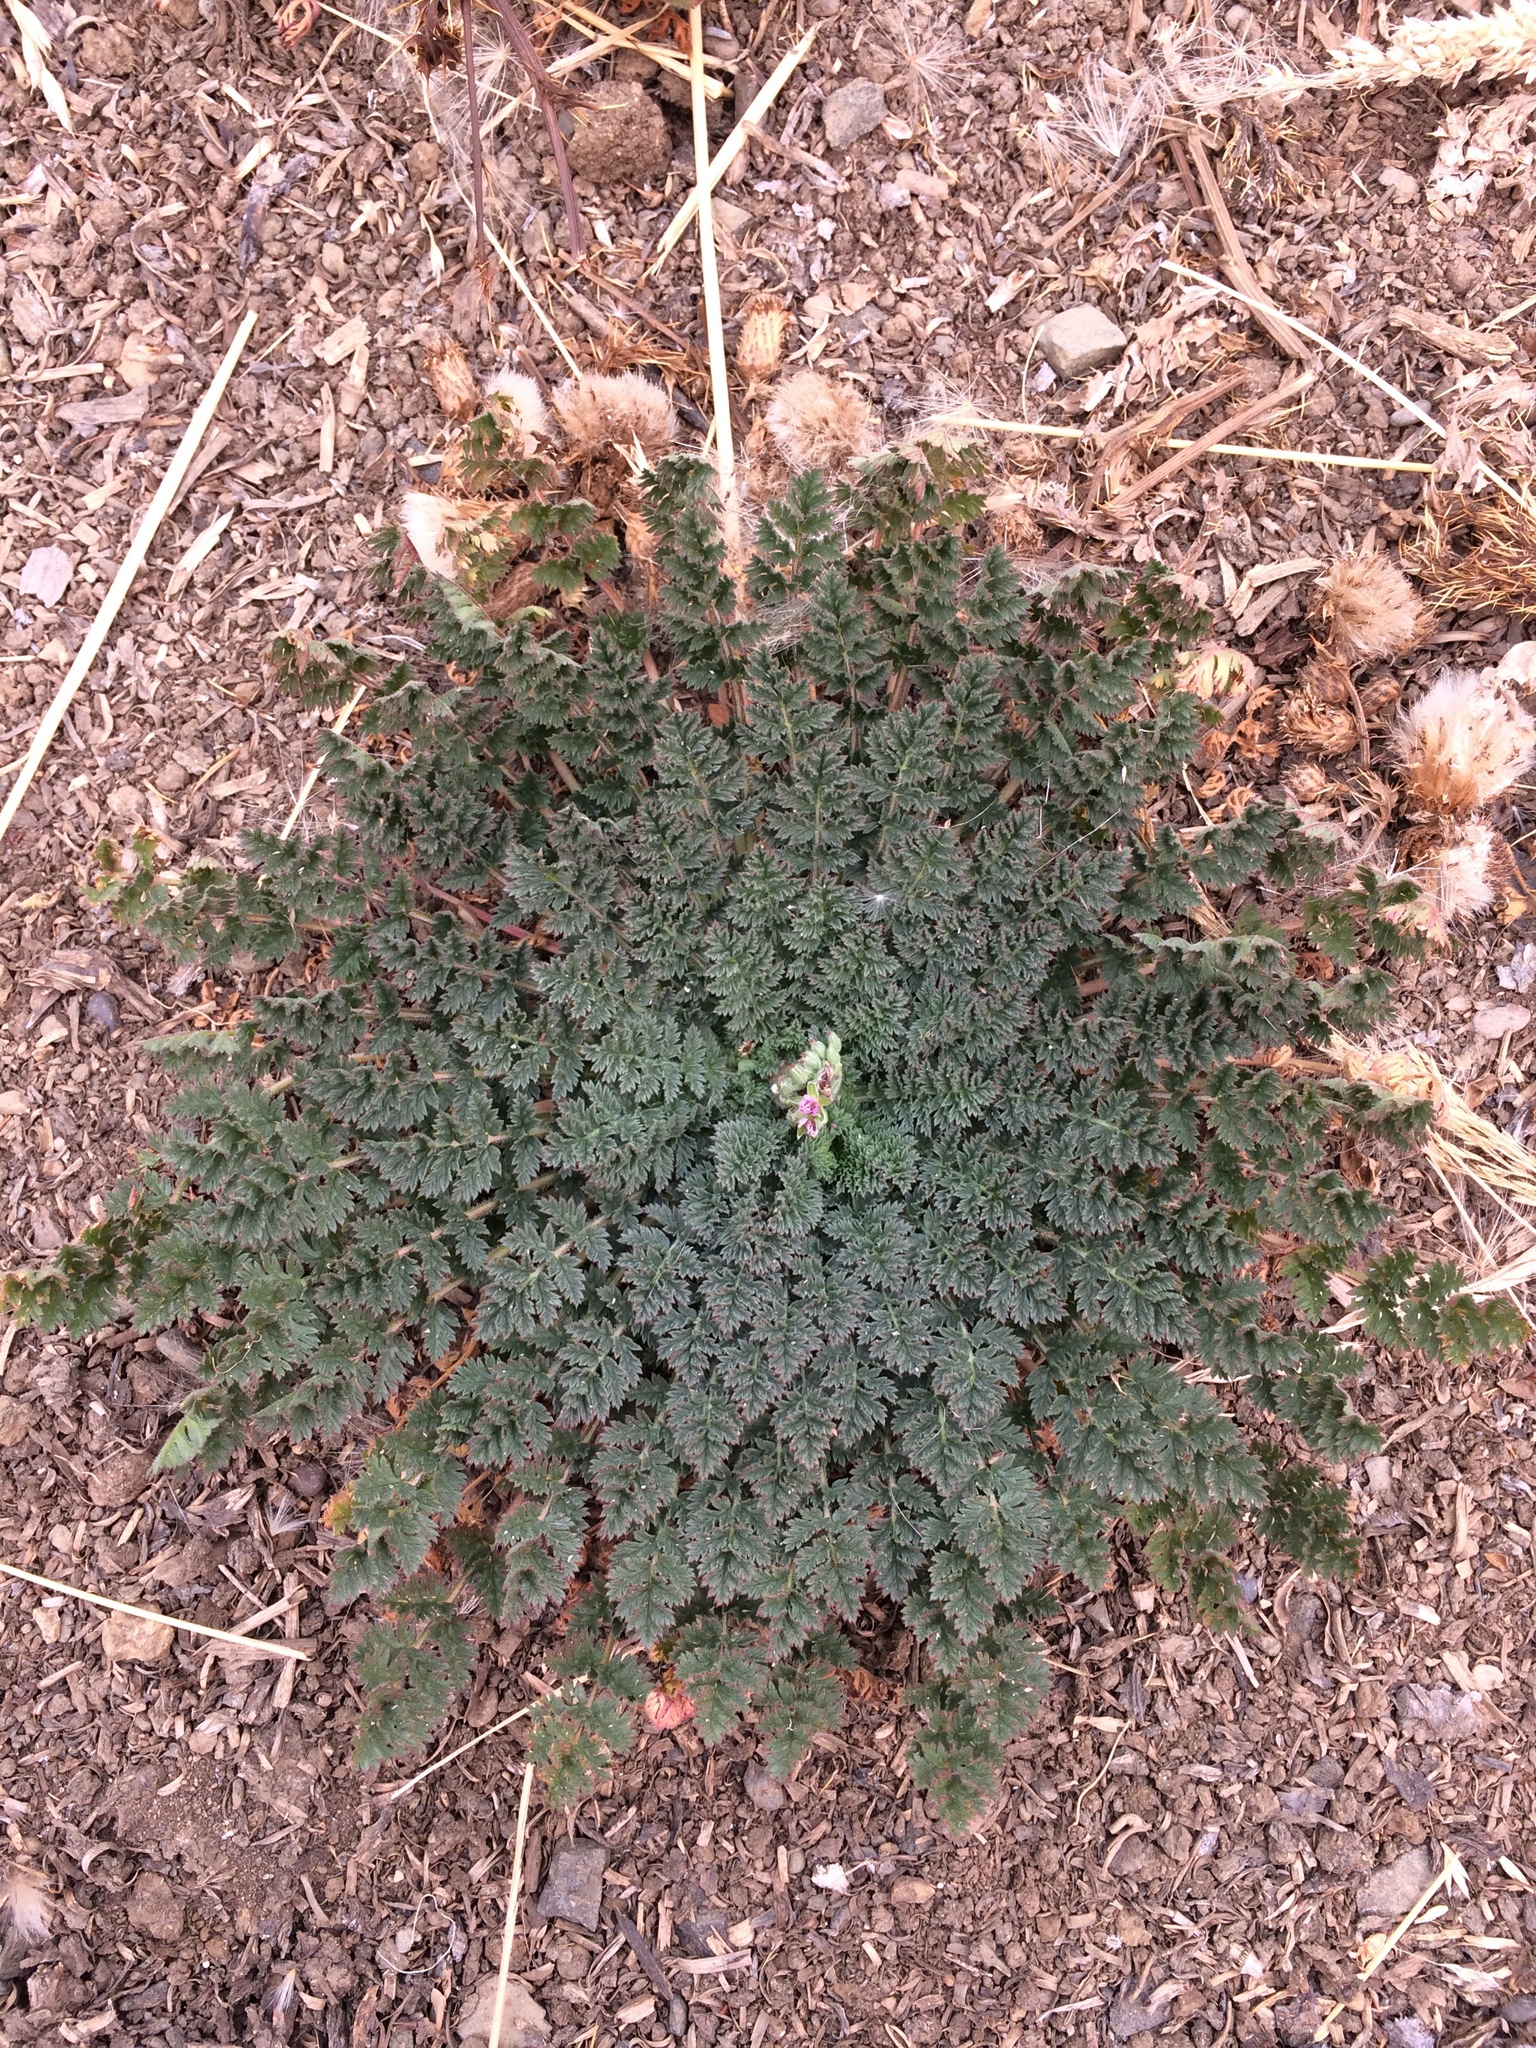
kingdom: Plantae
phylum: Tracheophyta
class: Magnoliopsida
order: Geraniales
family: Geraniaceae
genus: Erodium
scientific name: Erodium cicutarium
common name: Common stork's-bill
